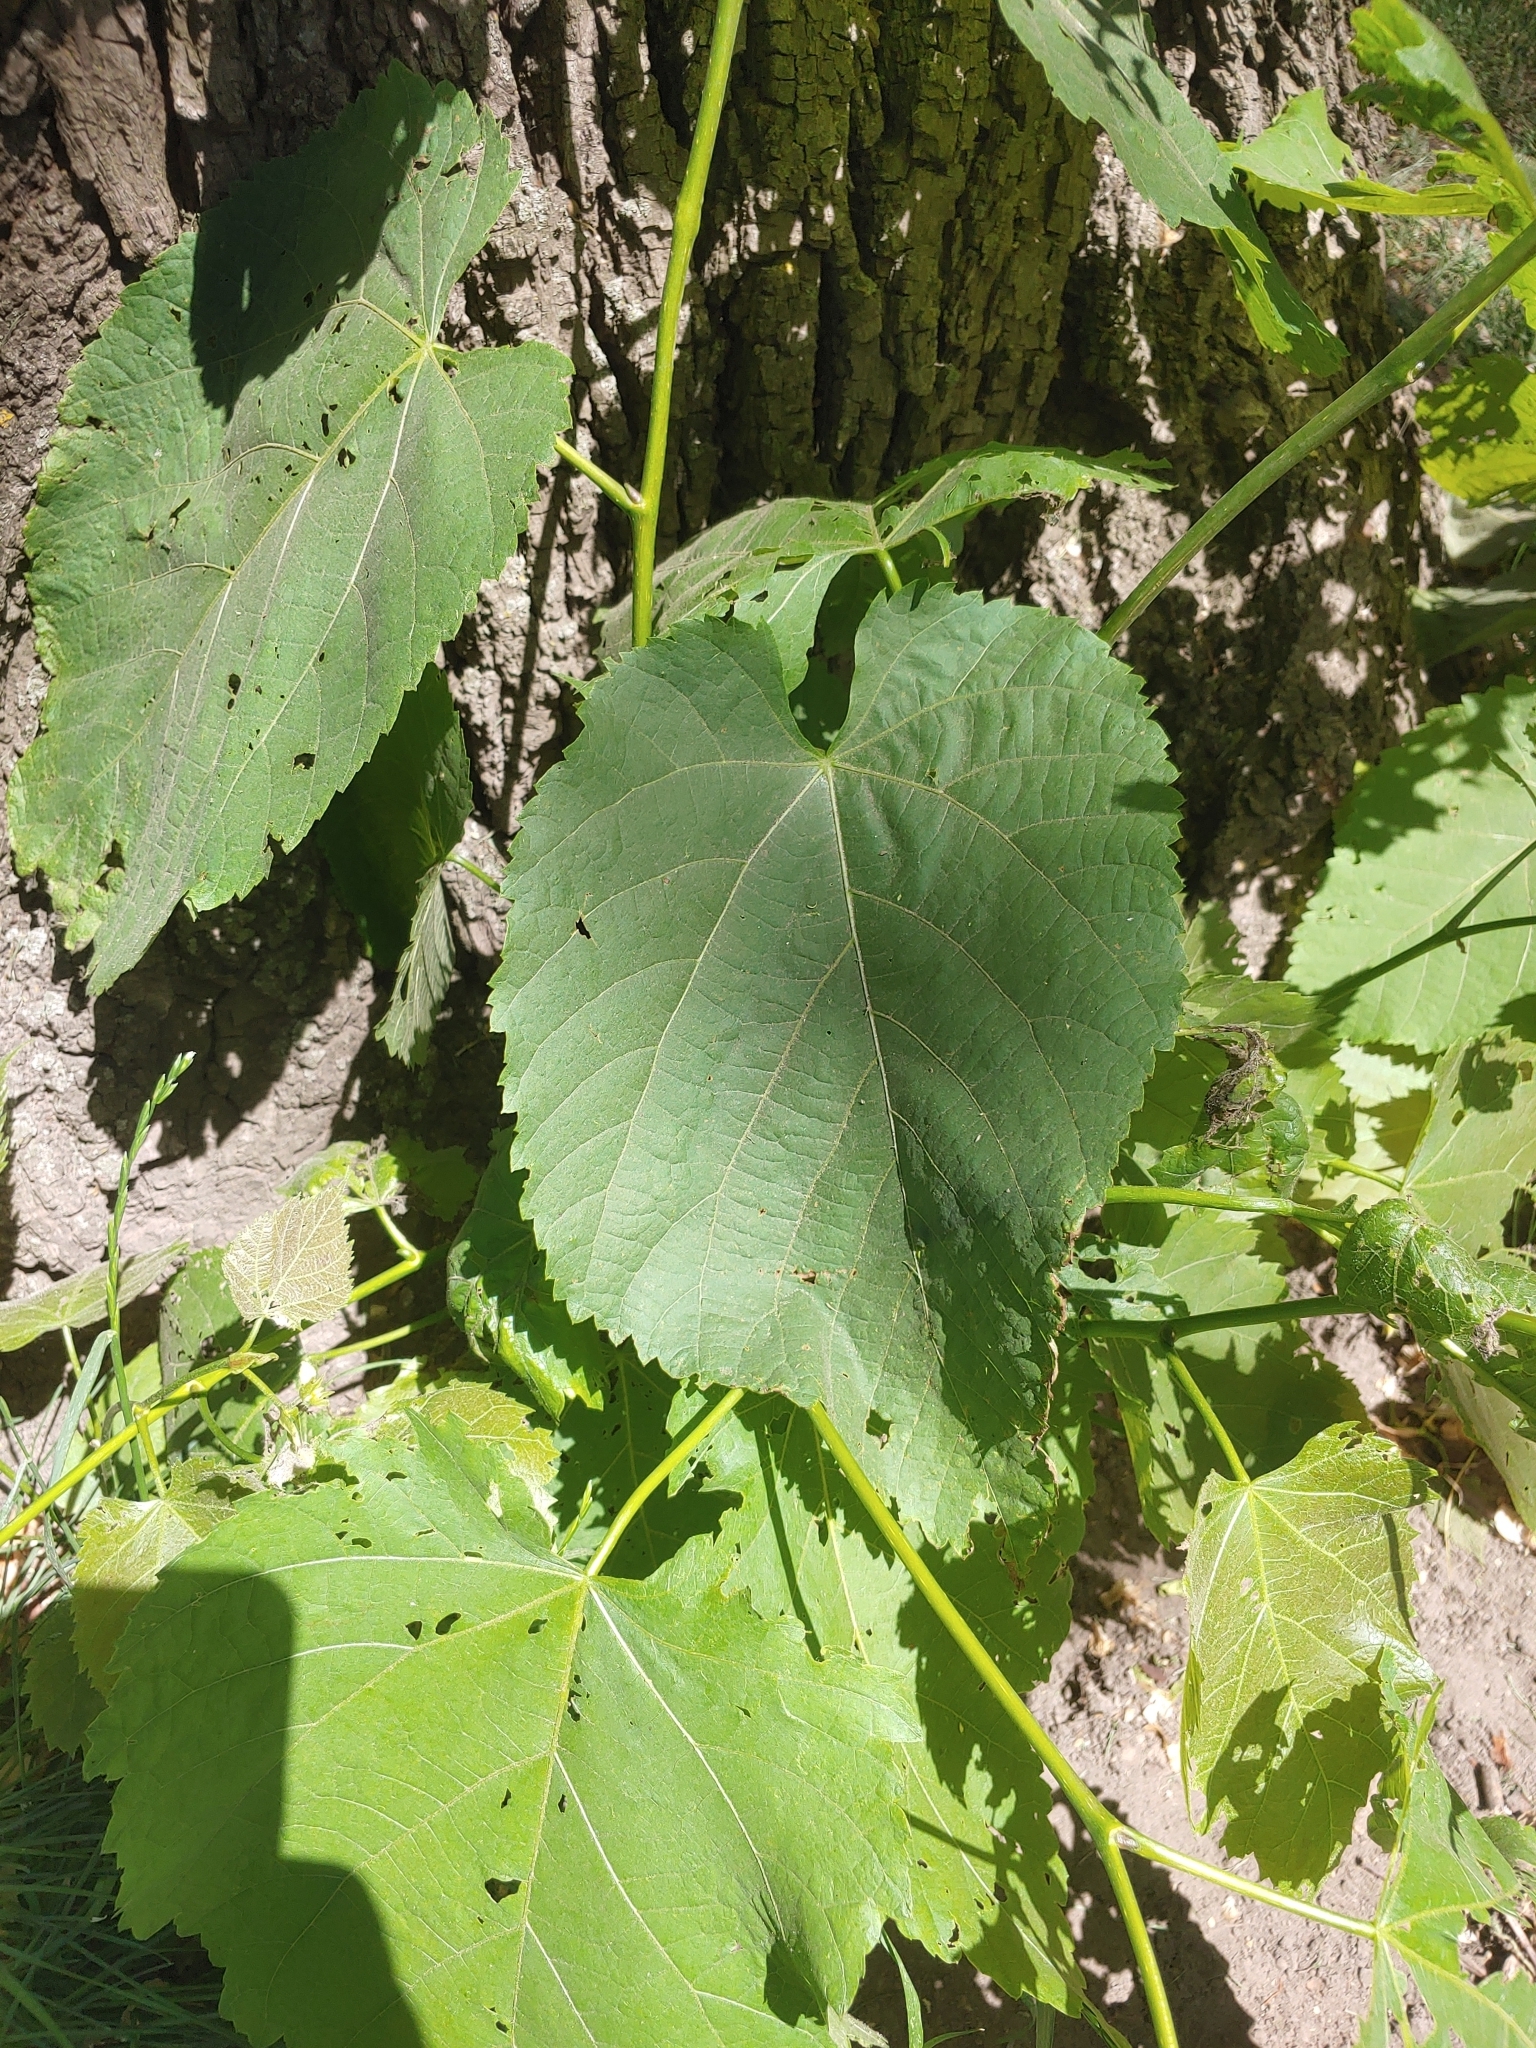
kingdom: Plantae
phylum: Tracheophyta
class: Magnoliopsida
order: Malvales
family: Malvaceae
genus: Tilia
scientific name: Tilia americana
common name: Basswood
